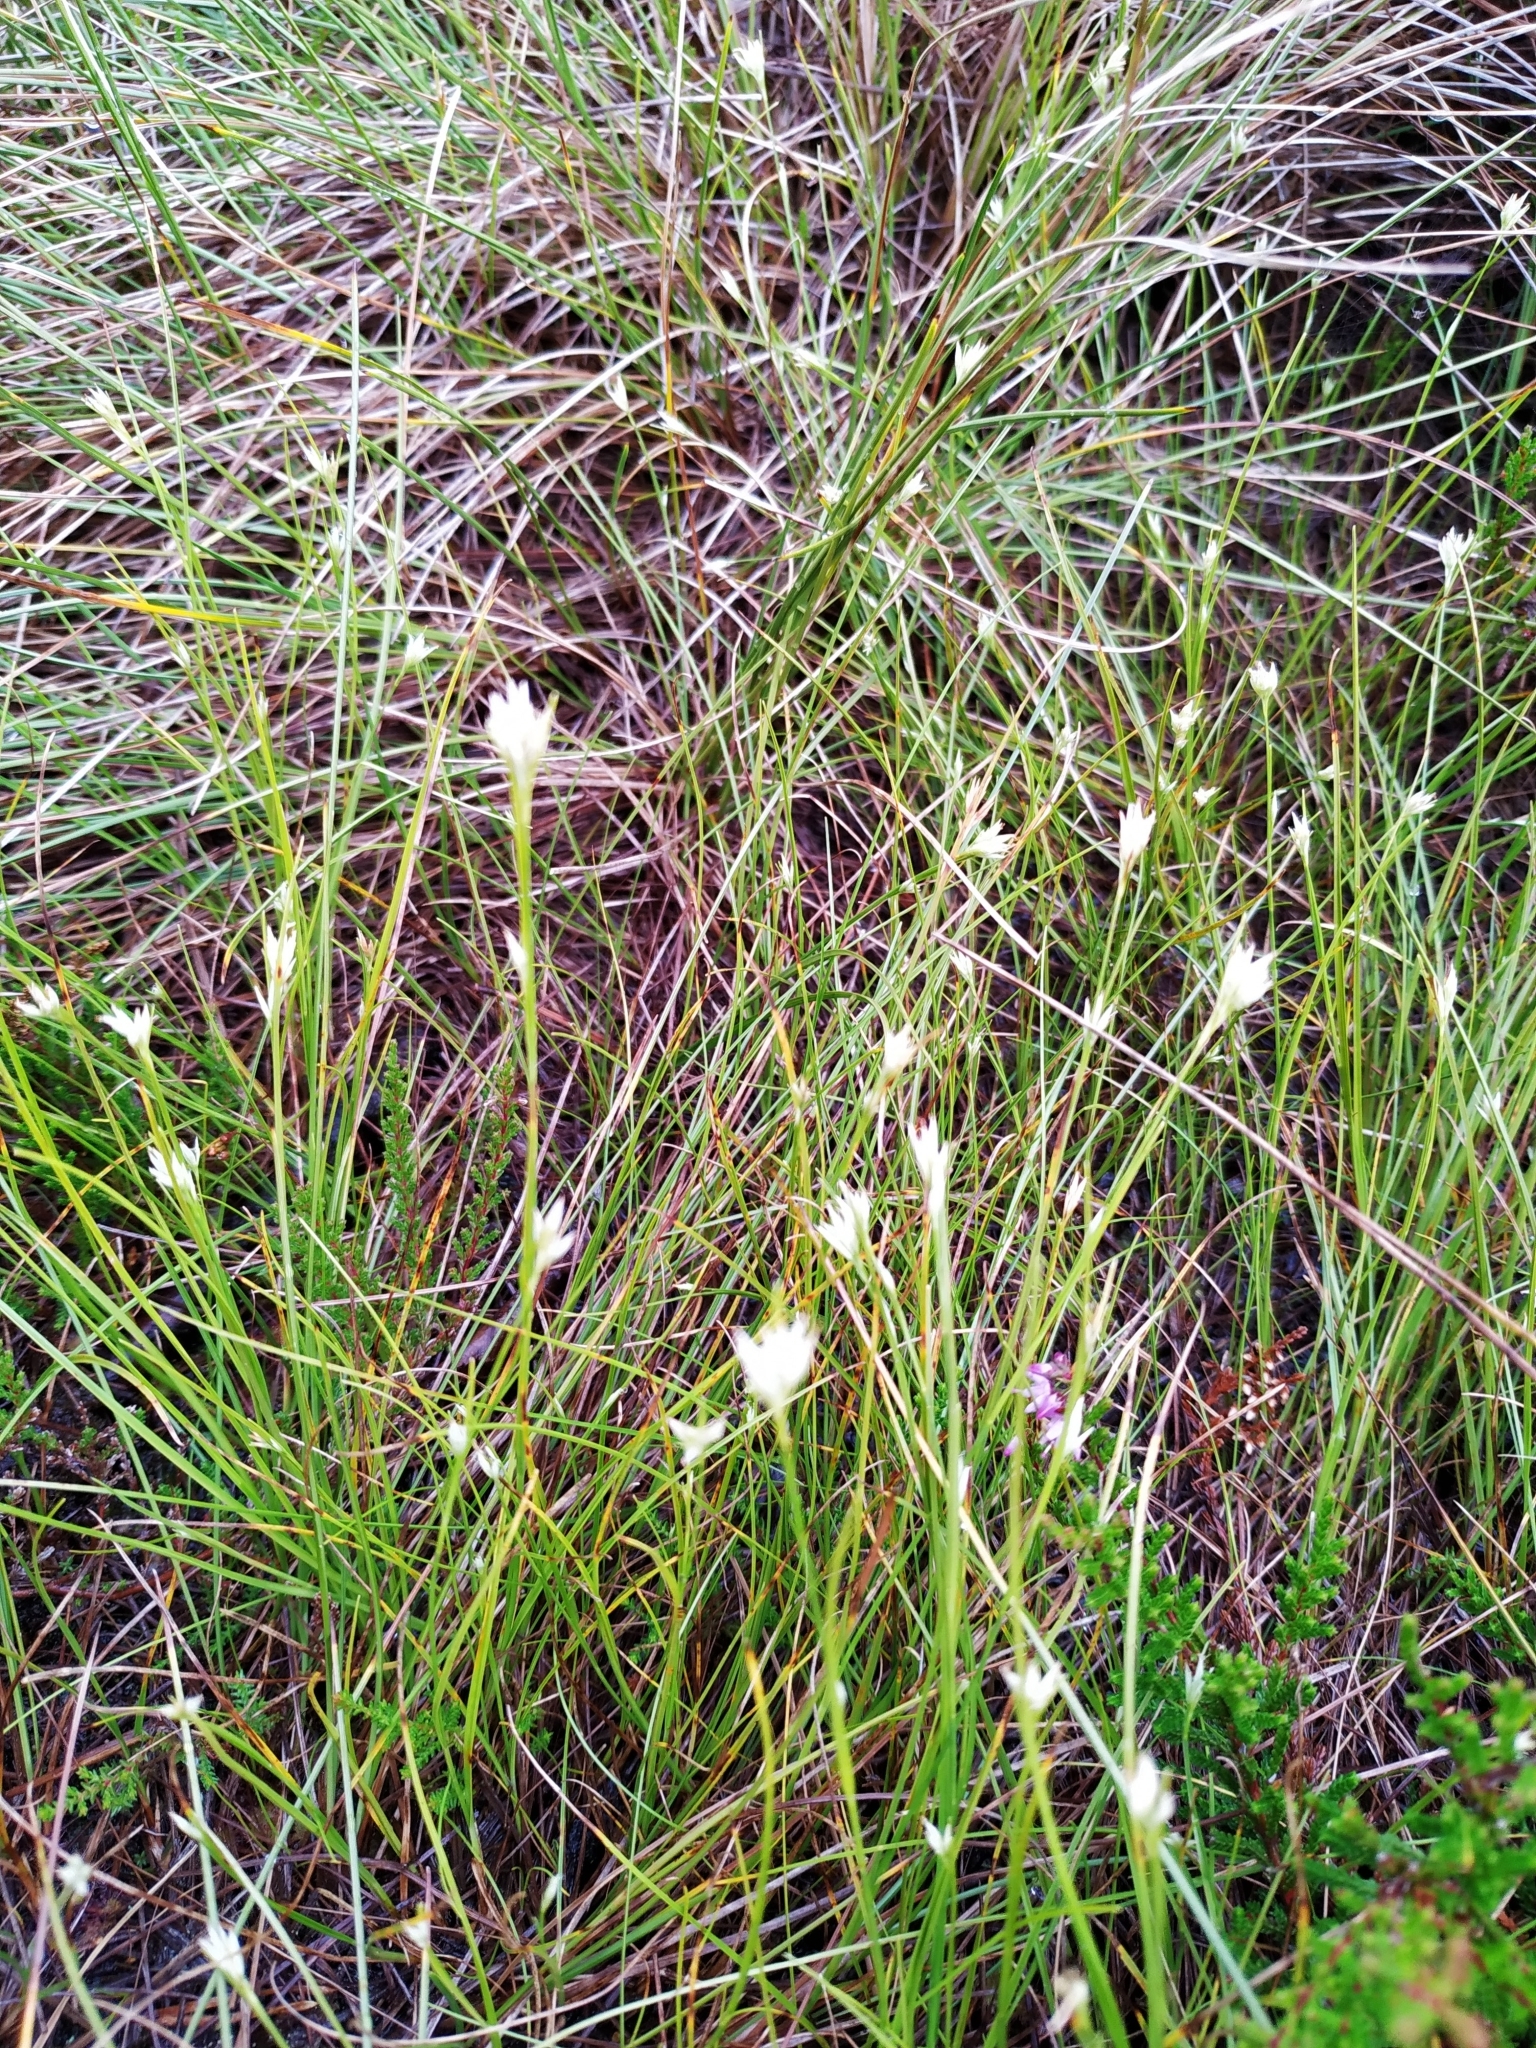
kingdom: Plantae
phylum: Tracheophyta
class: Liliopsida
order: Poales
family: Cyperaceae
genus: Rhynchospora
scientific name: Rhynchospora alba
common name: White beak-sedge
